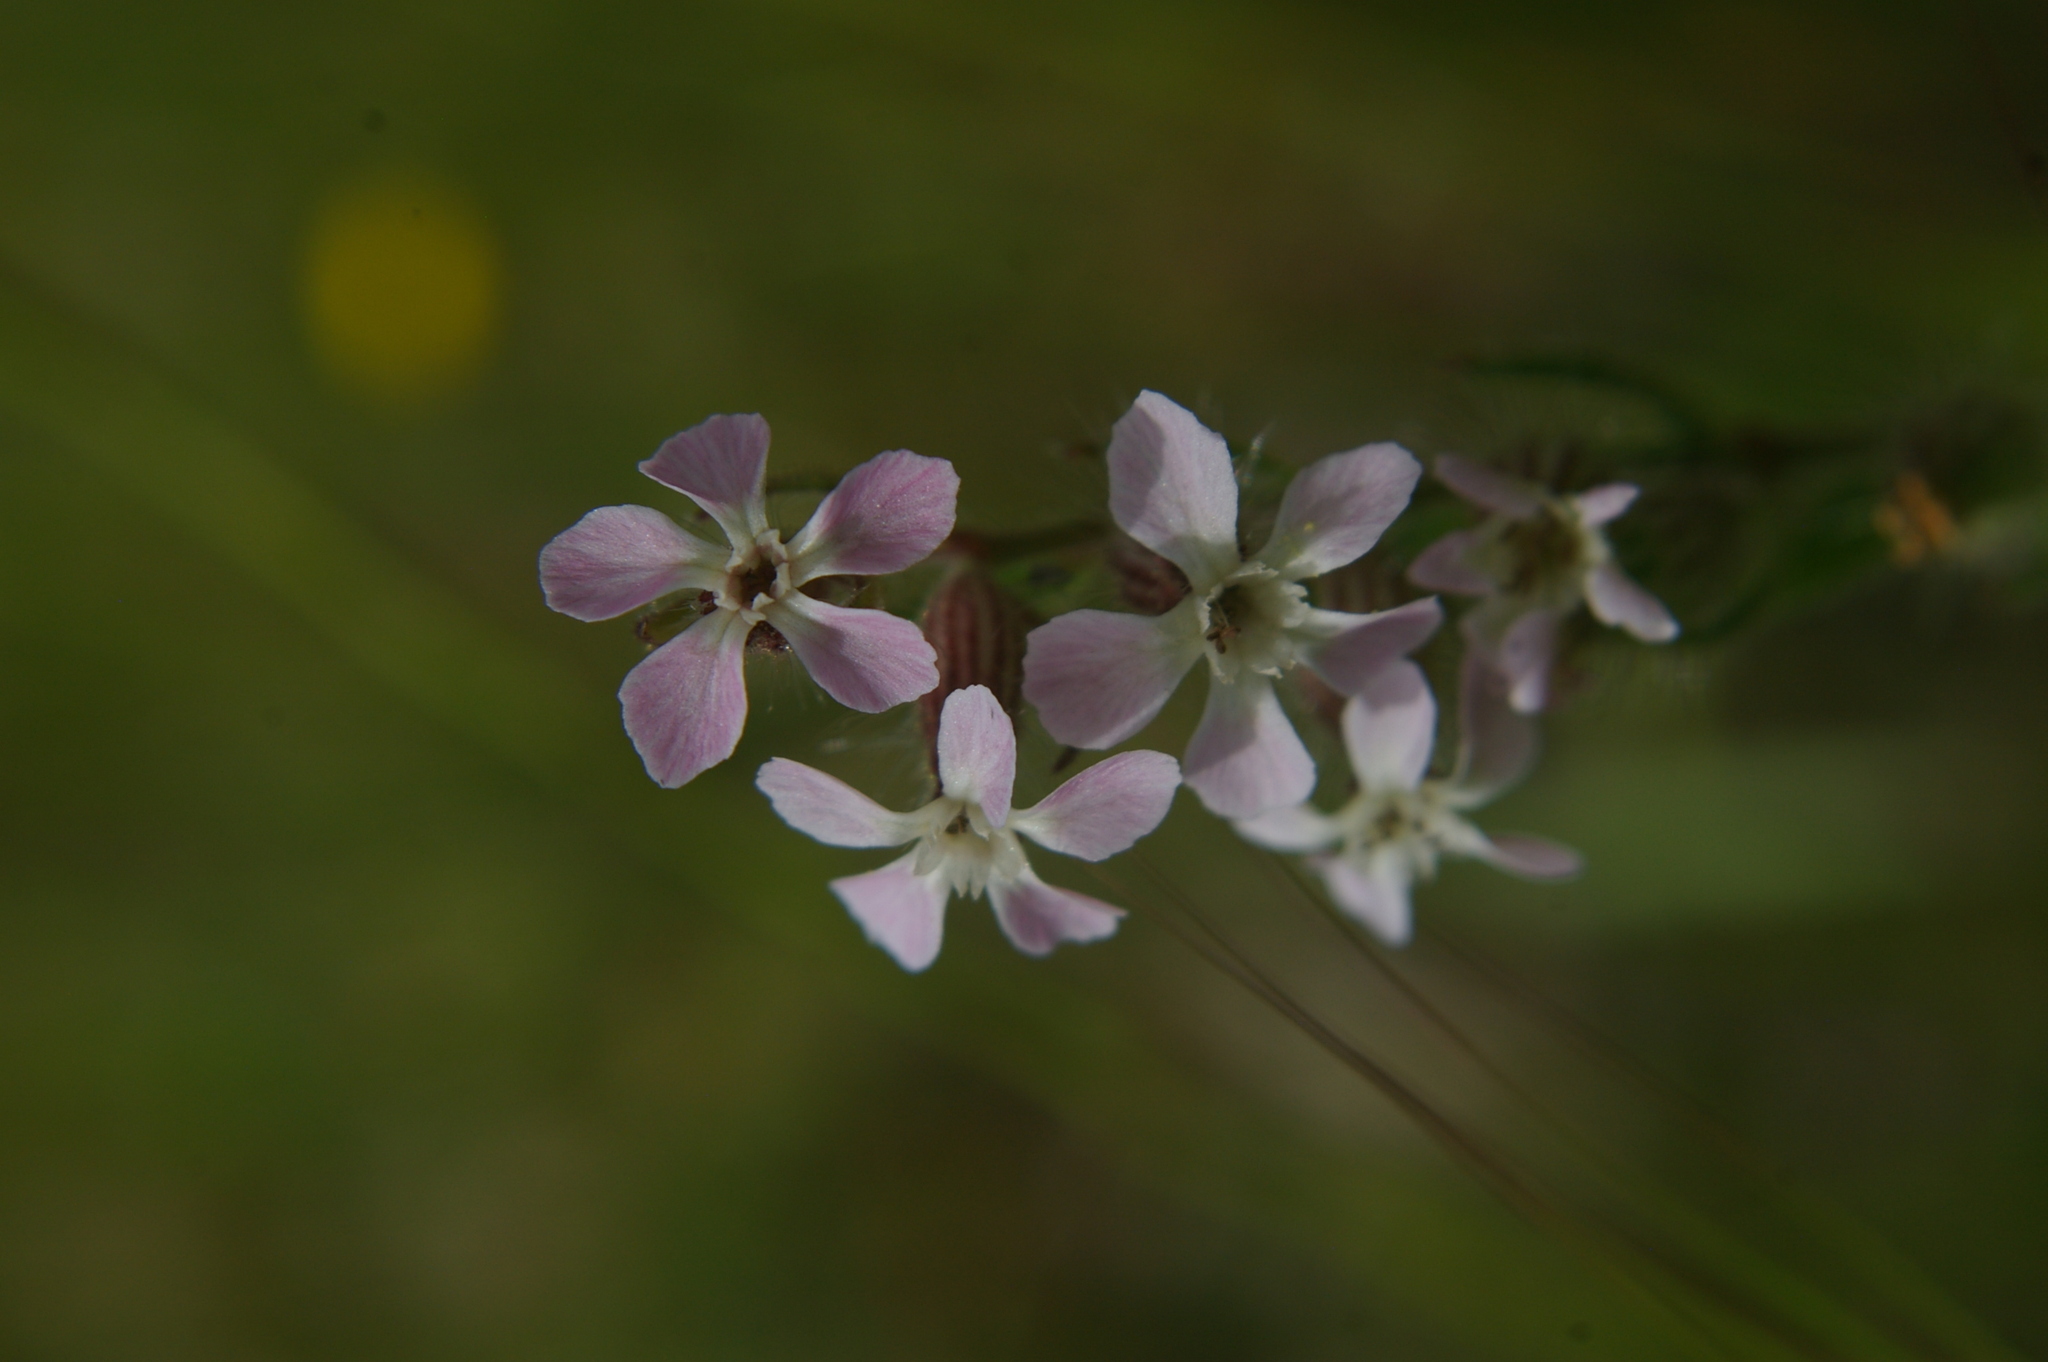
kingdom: Plantae
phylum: Tracheophyta
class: Magnoliopsida
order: Caryophyllales
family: Caryophyllaceae
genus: Silene
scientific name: Silene gallica
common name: Small-flowered catchfly
